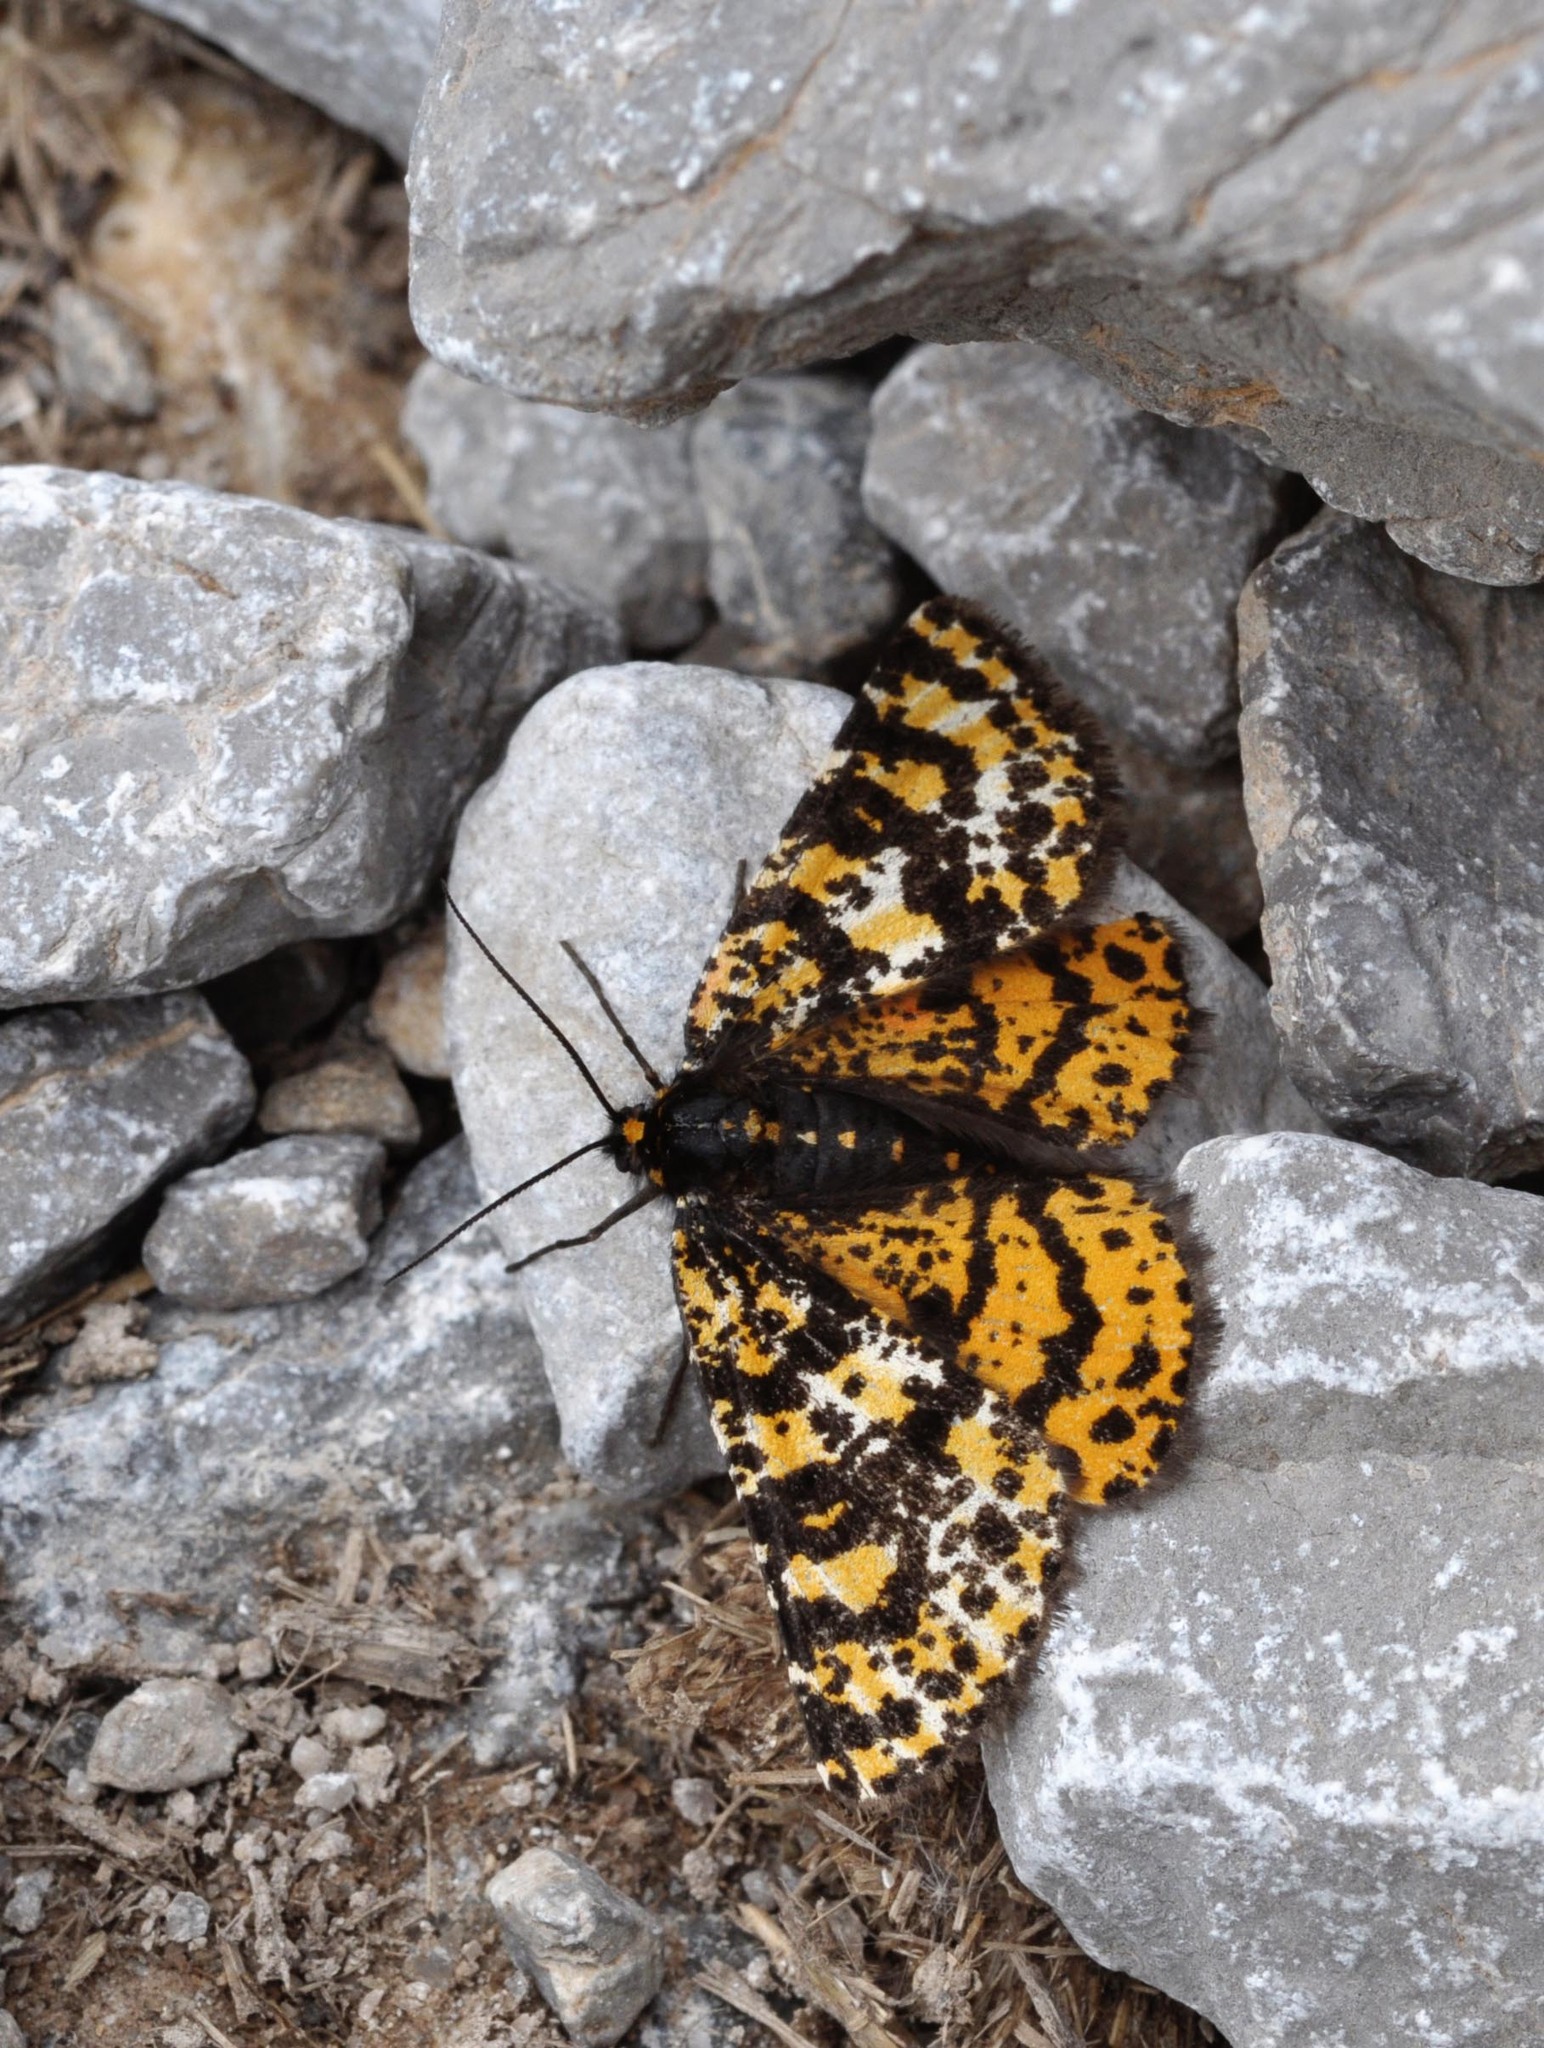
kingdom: Animalia
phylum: Arthropoda
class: Insecta
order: Lepidoptera
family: Geometridae
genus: Eurranthis
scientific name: Eurranthis plummistaria
